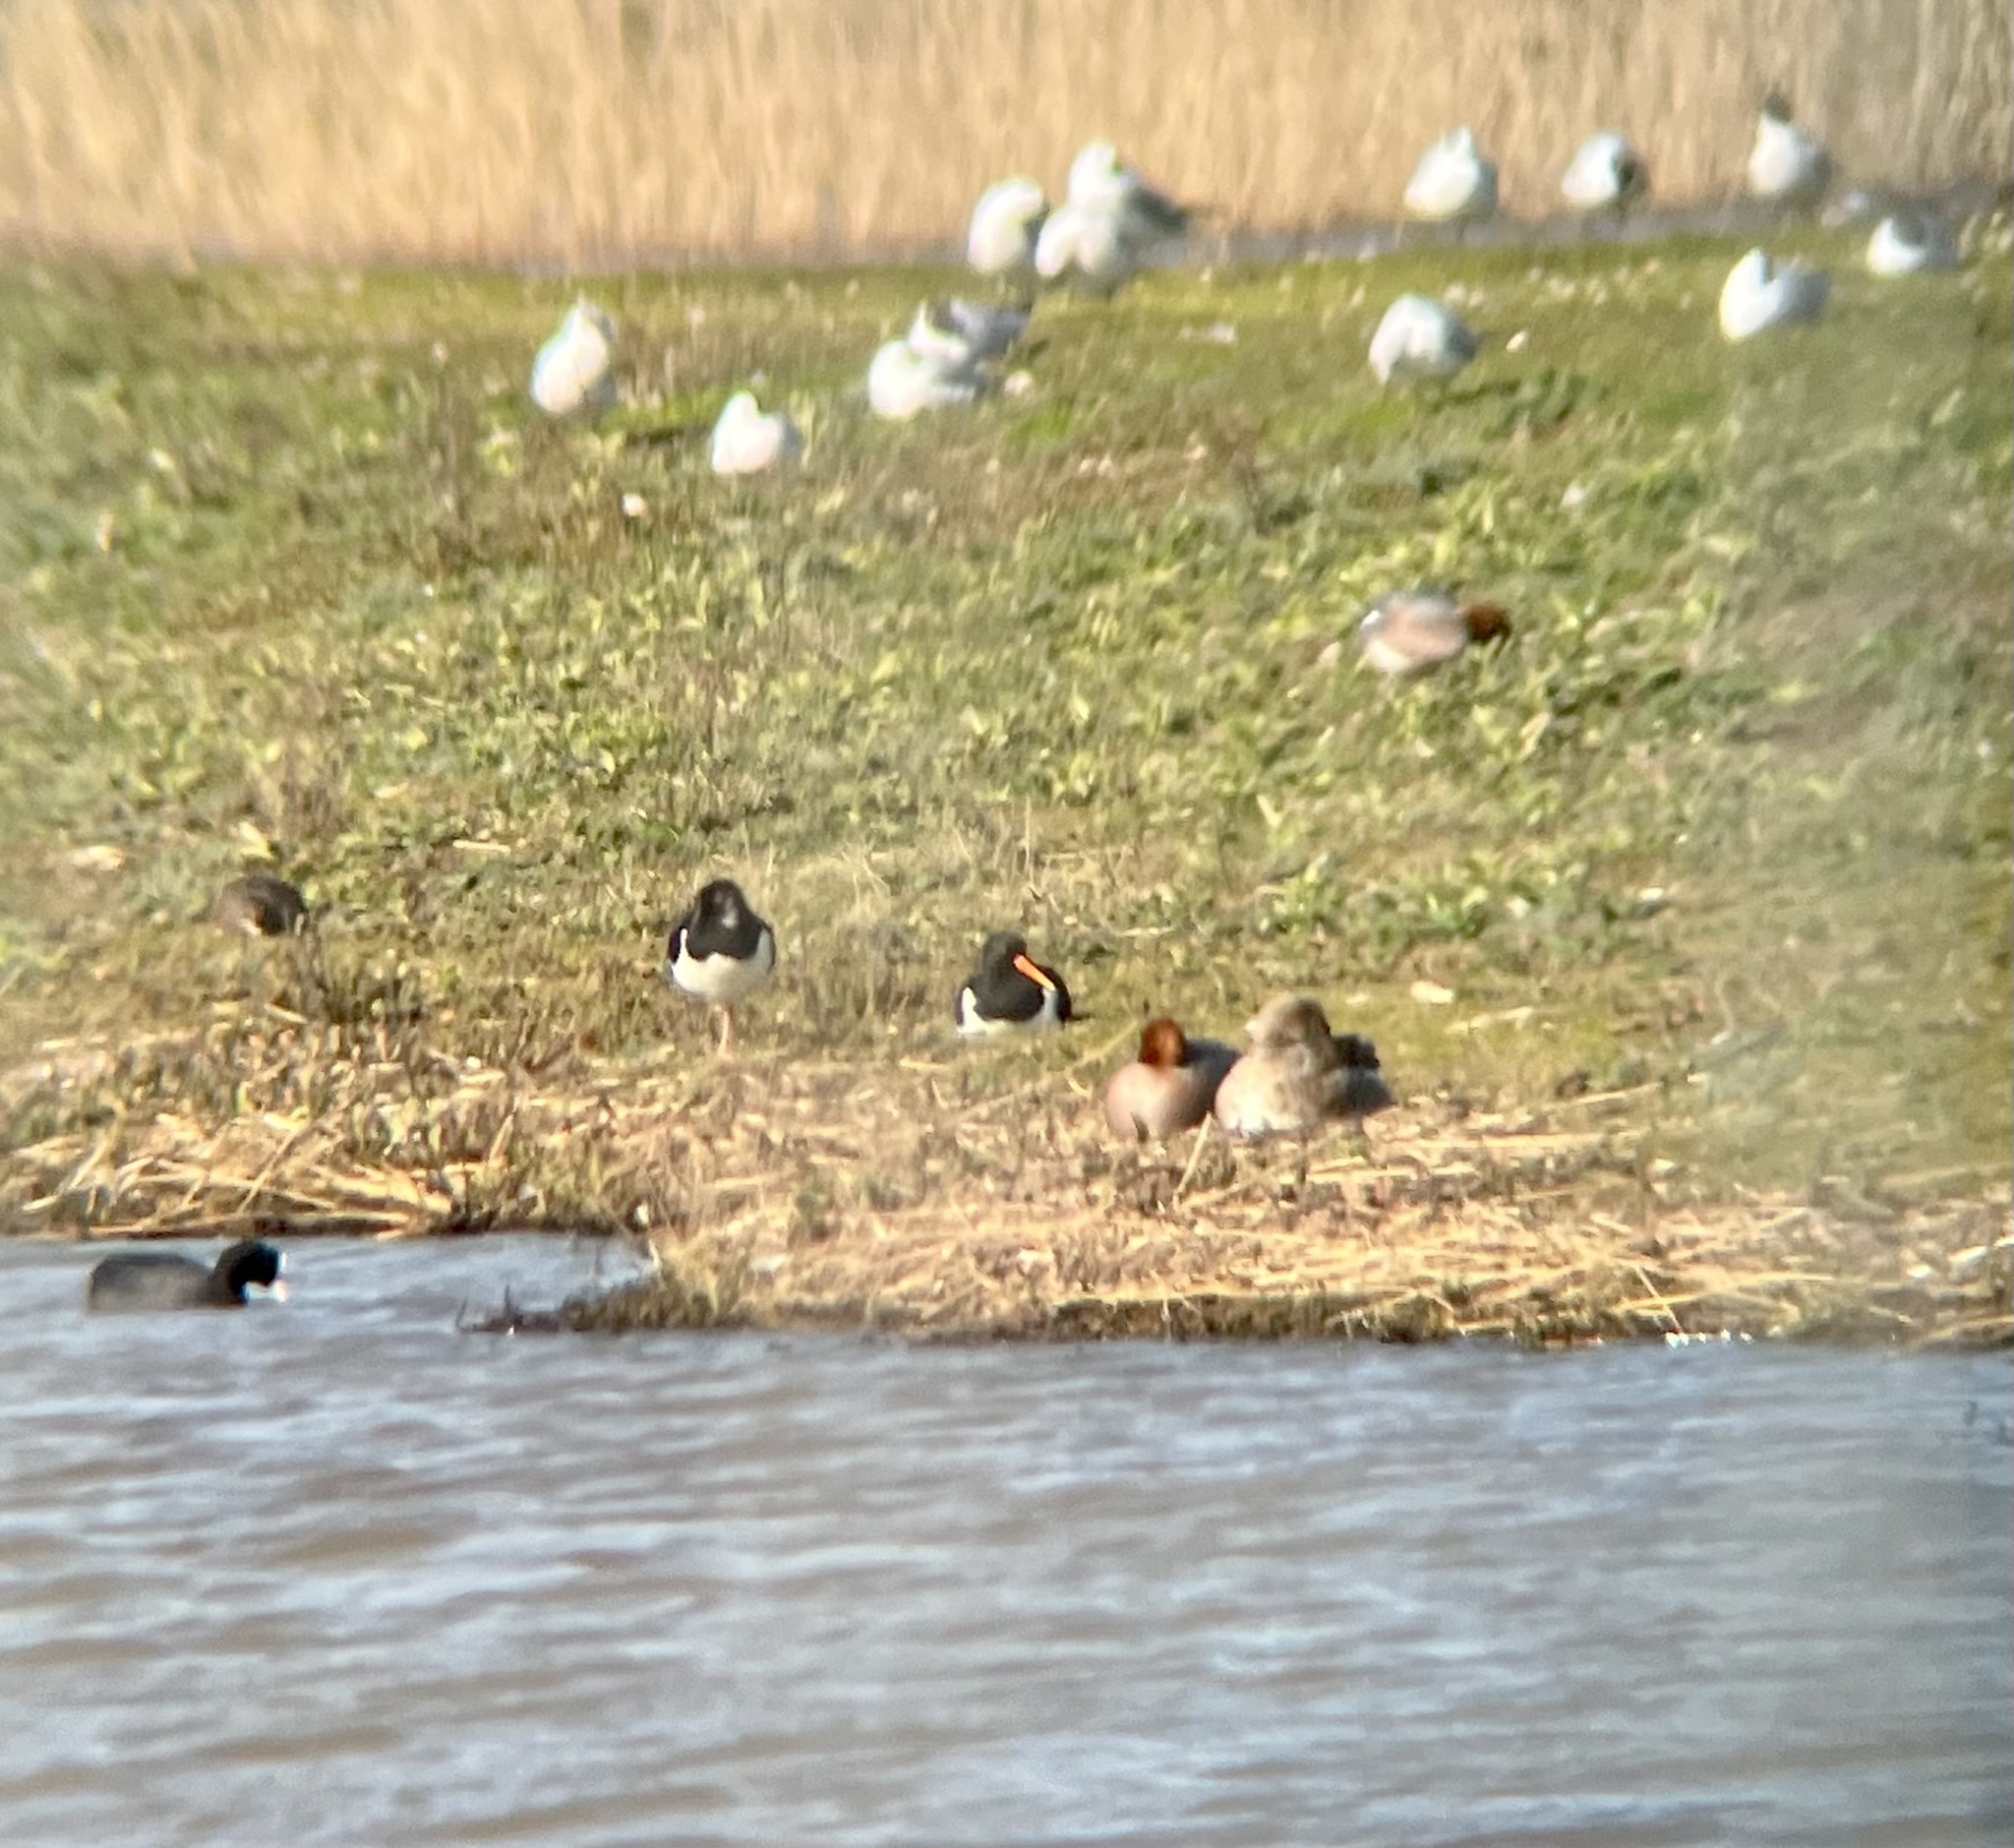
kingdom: Animalia
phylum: Chordata
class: Aves
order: Charadriiformes
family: Haematopodidae
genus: Haematopus
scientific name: Haematopus ostralegus
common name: Eurasian oystercatcher
